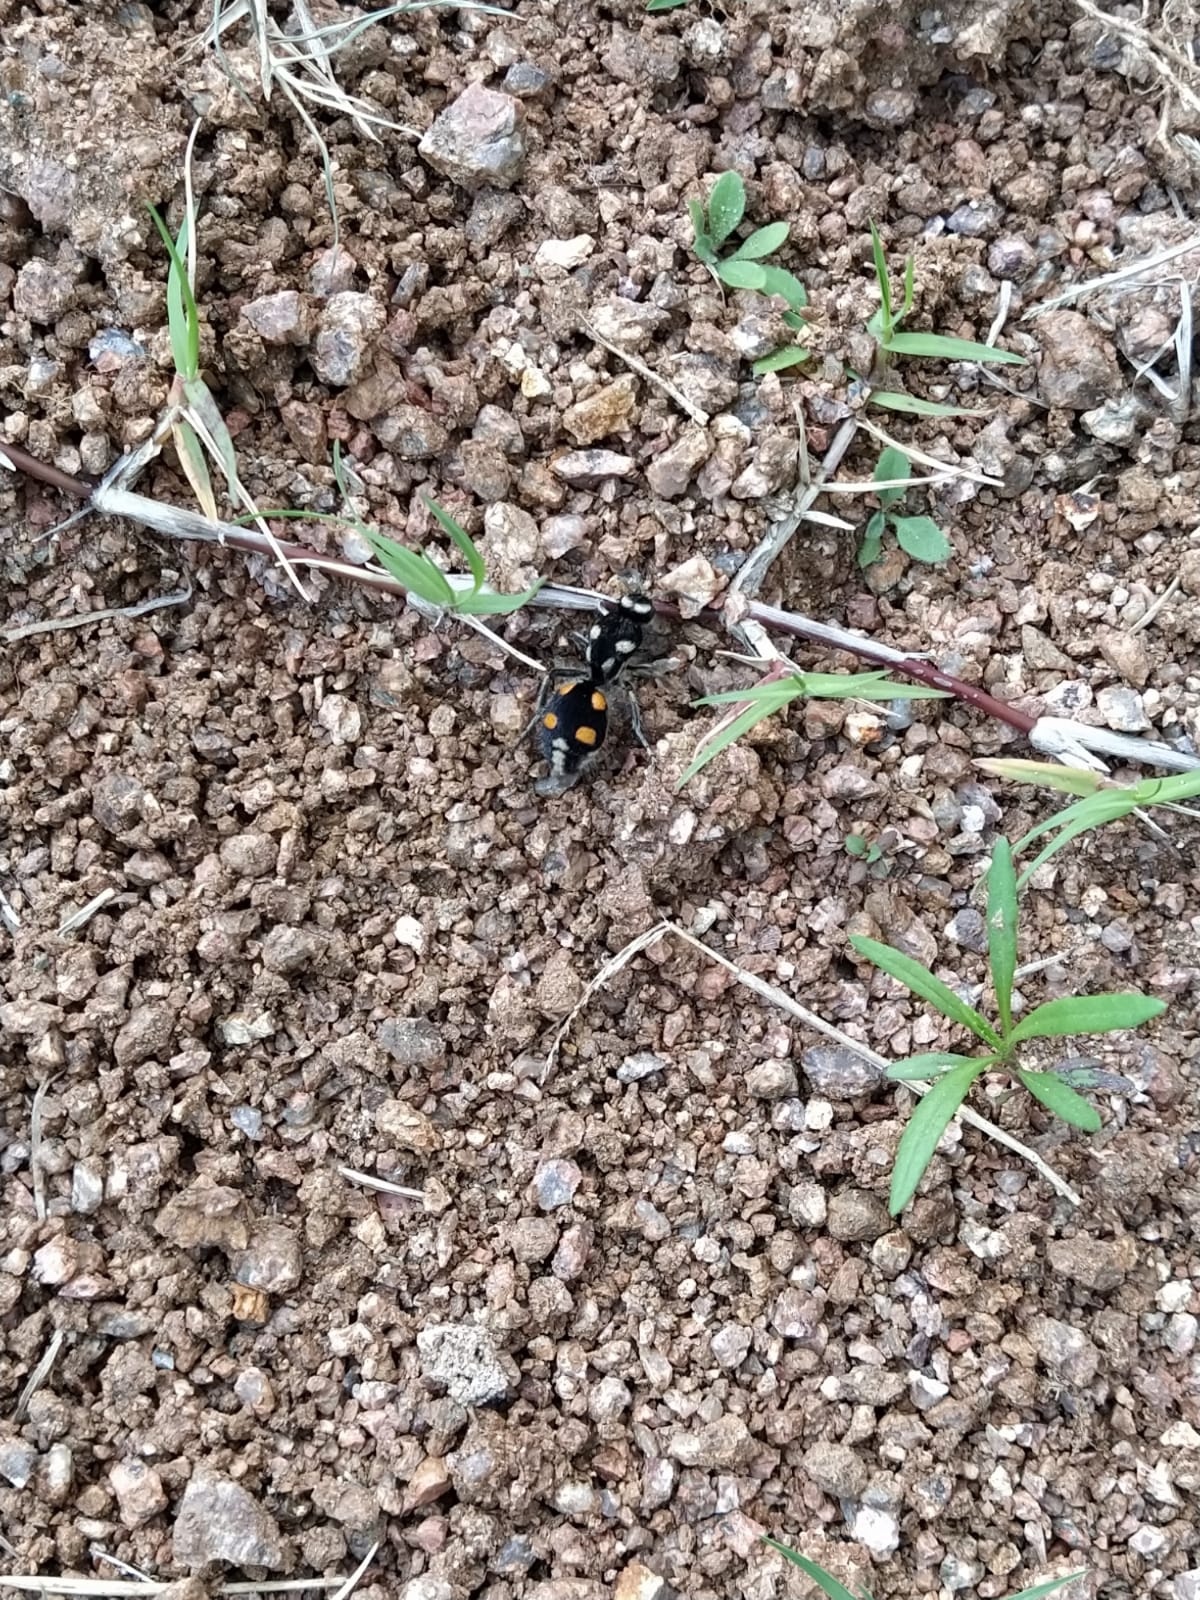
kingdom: Animalia
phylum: Arthropoda
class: Insecta
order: Hymenoptera
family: Mutillidae
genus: Traumatomutilla
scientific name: Traumatomutilla
